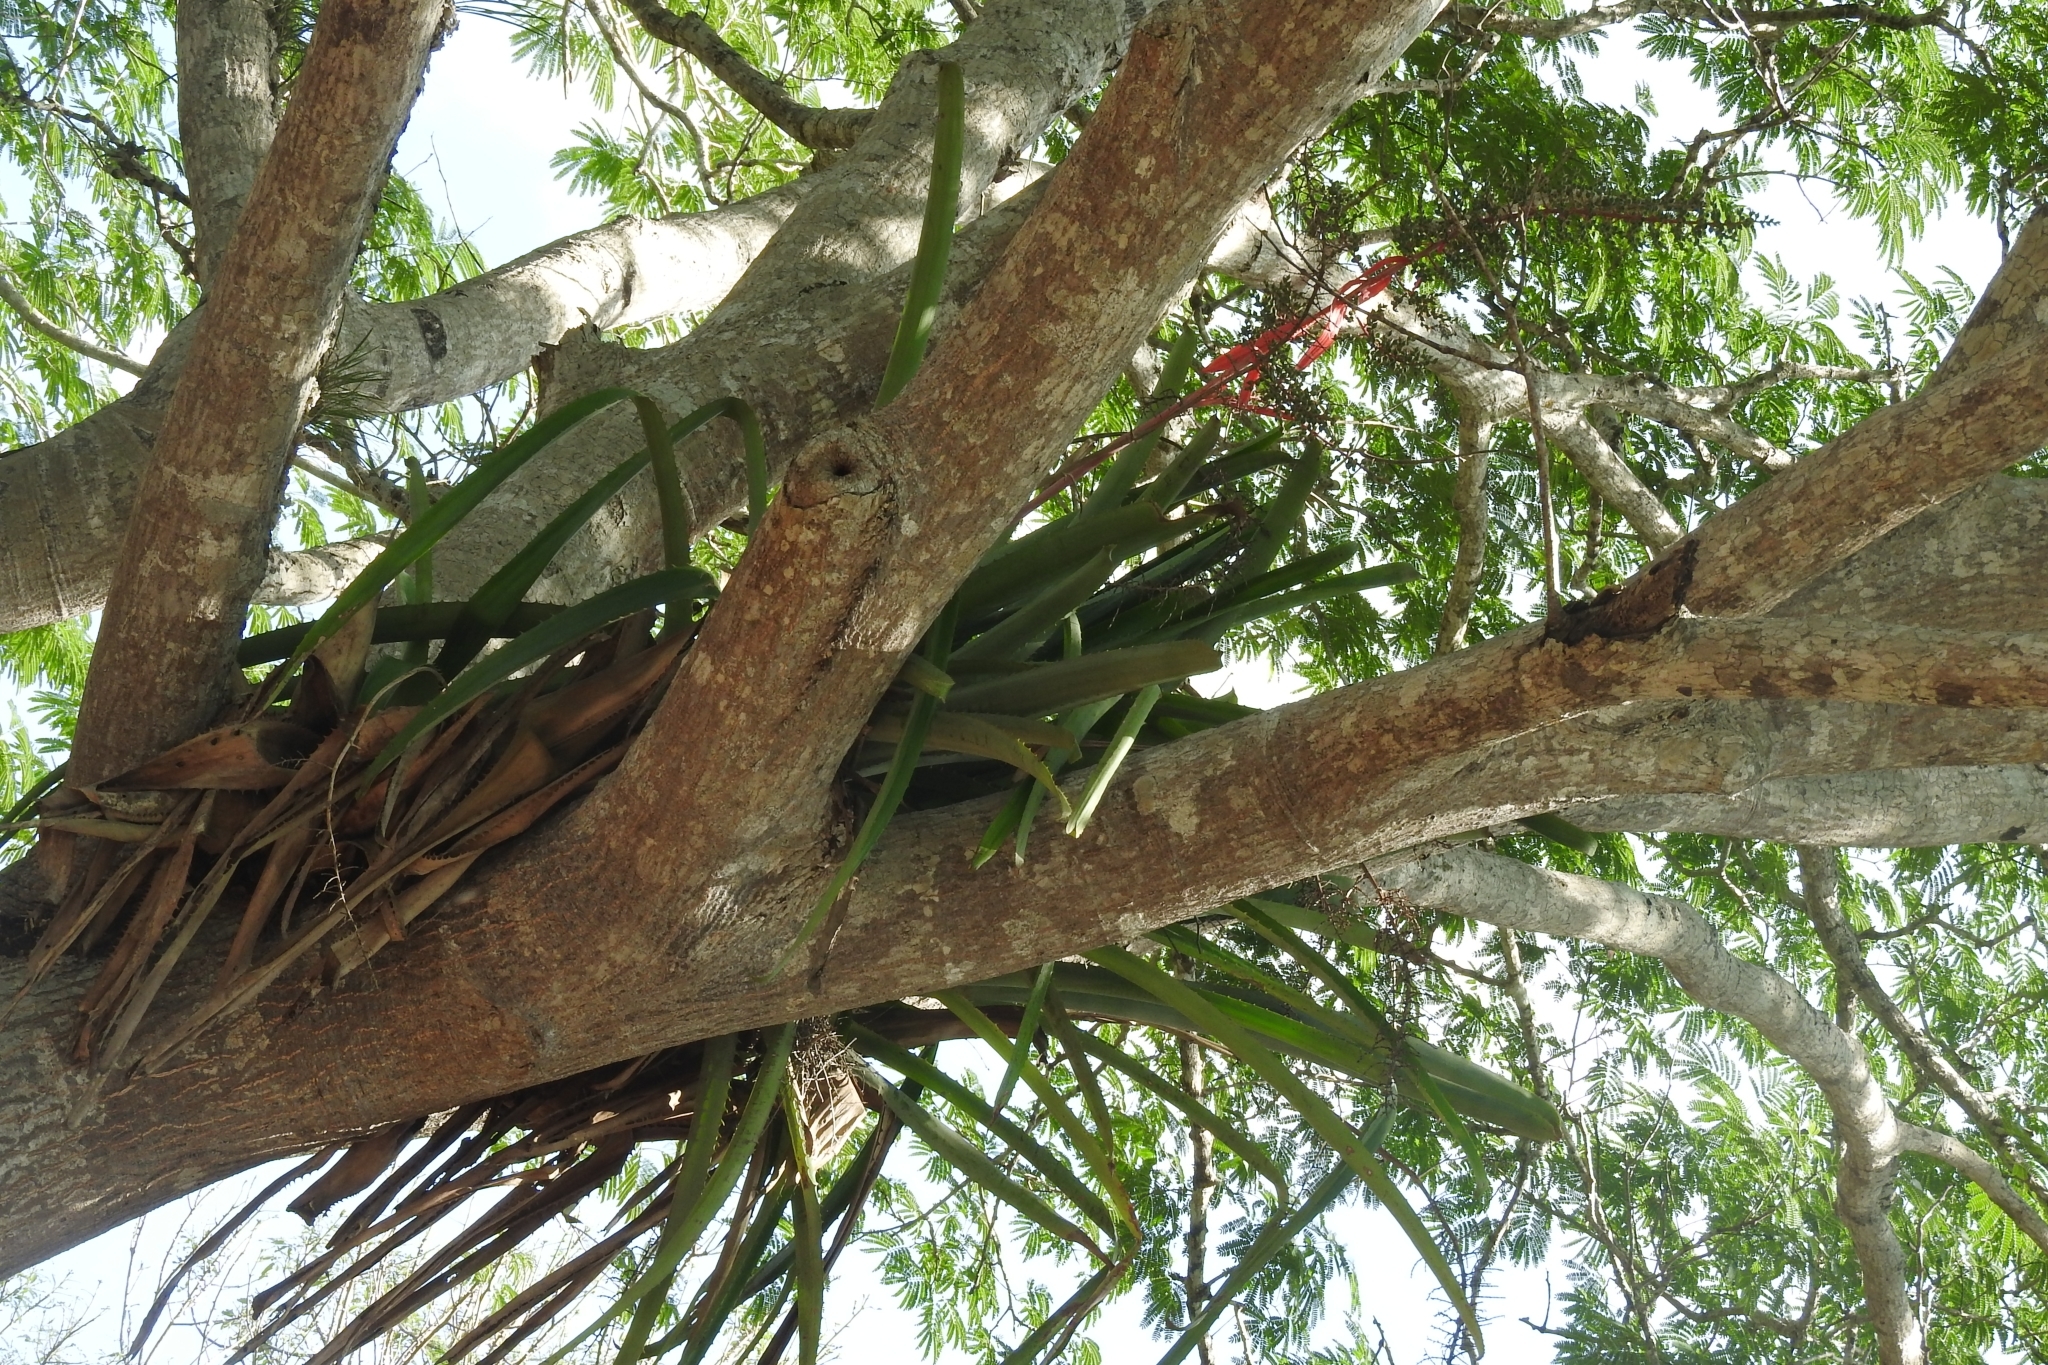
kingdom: Plantae
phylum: Tracheophyta
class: Liliopsida
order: Poales
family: Bromeliaceae
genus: Aechmea
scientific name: Aechmea bracteata
